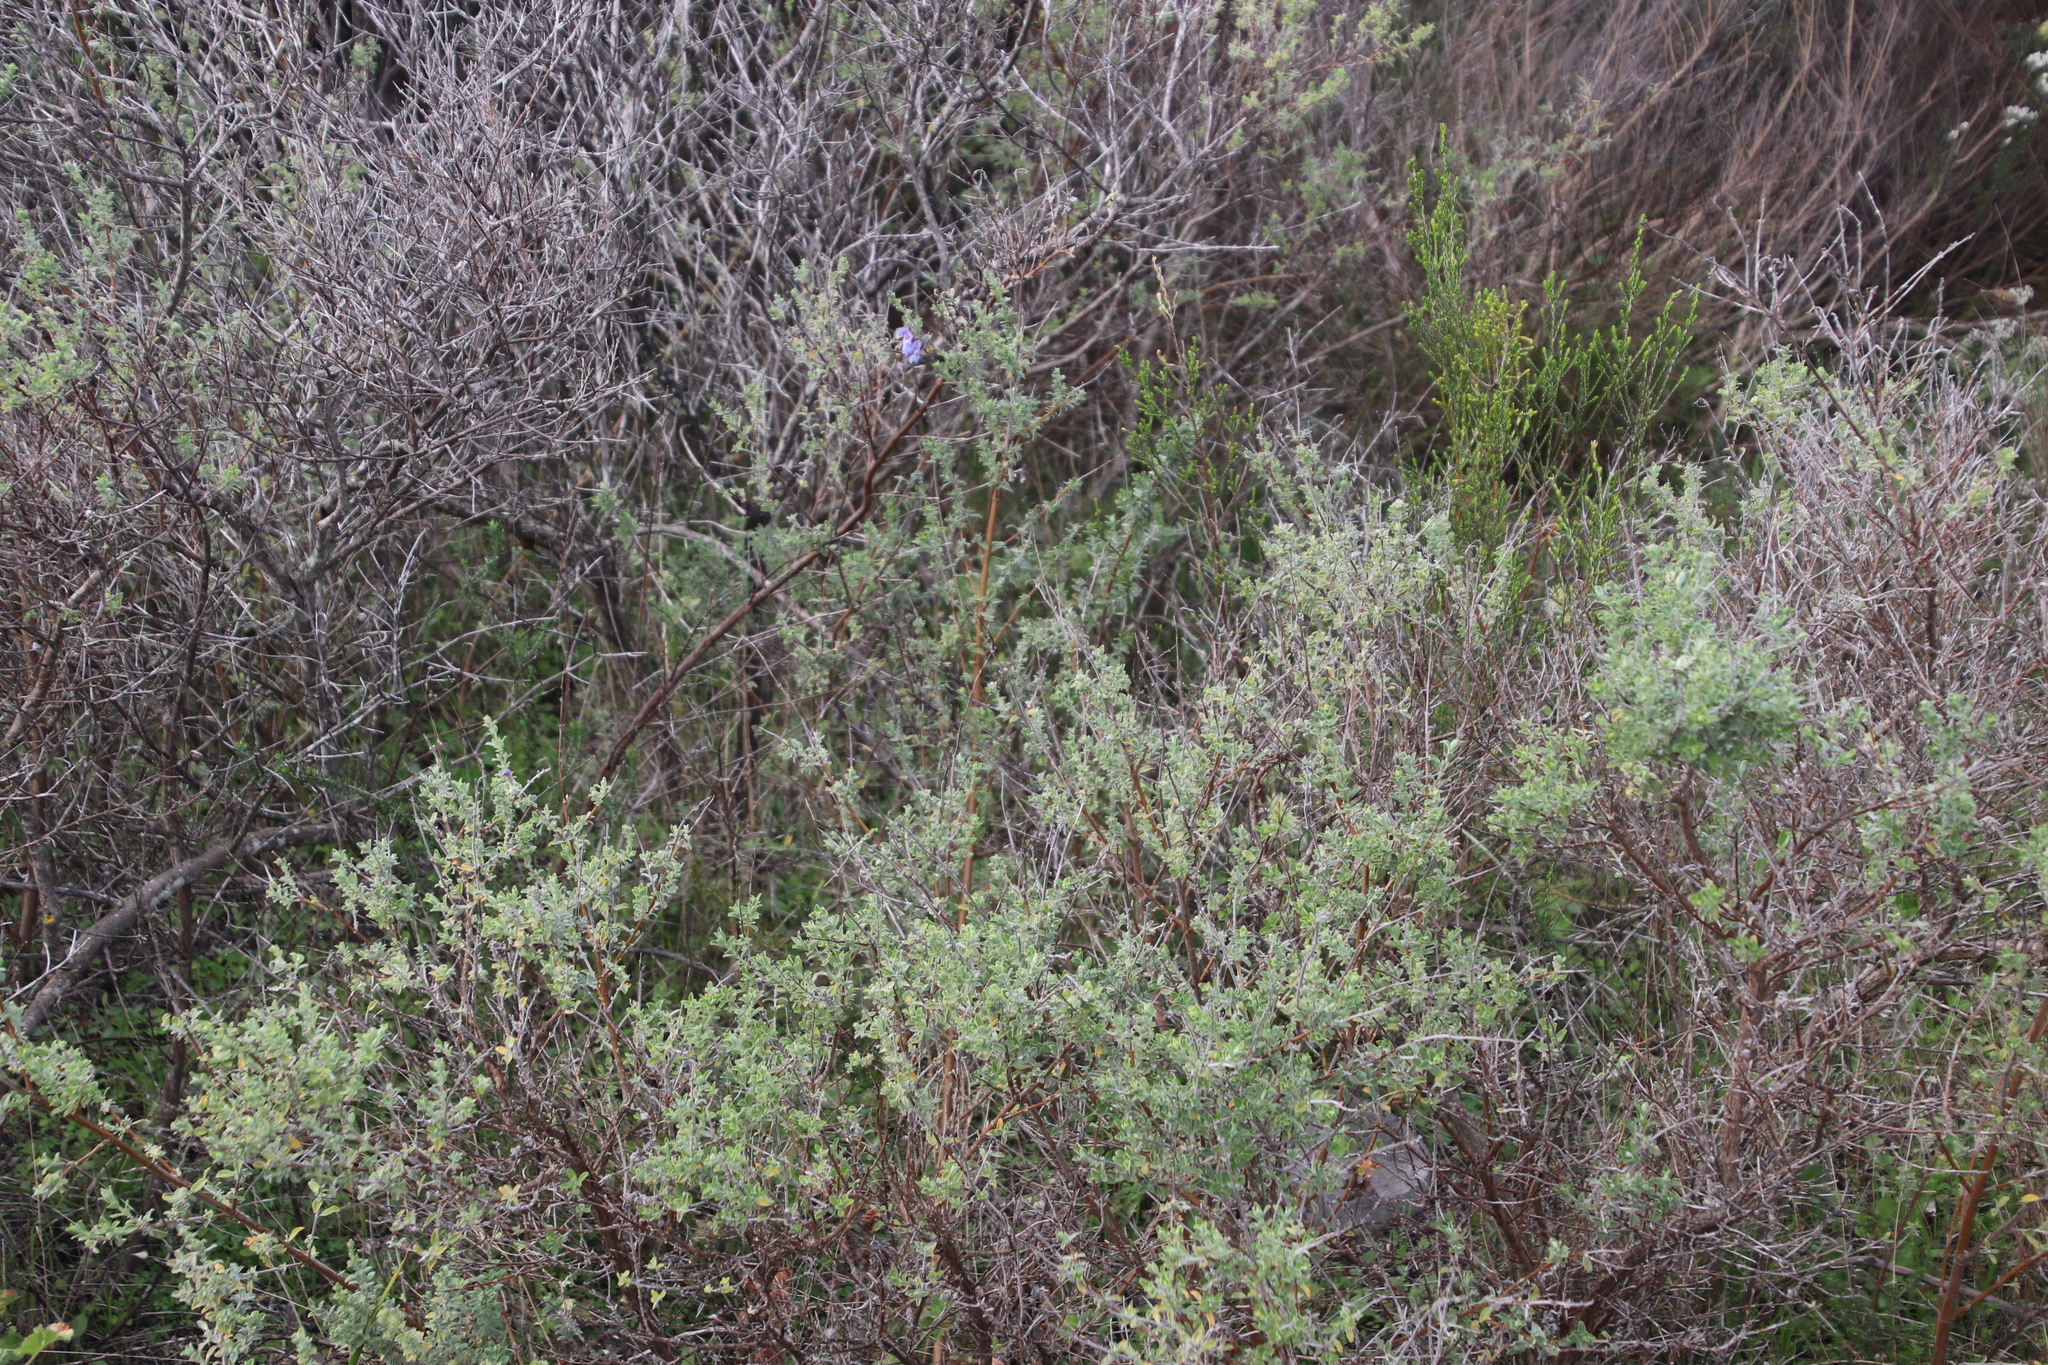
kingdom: Plantae
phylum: Tracheophyta
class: Magnoliopsida
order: Lamiales
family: Lamiaceae
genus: Salvia
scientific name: Salvia africana
